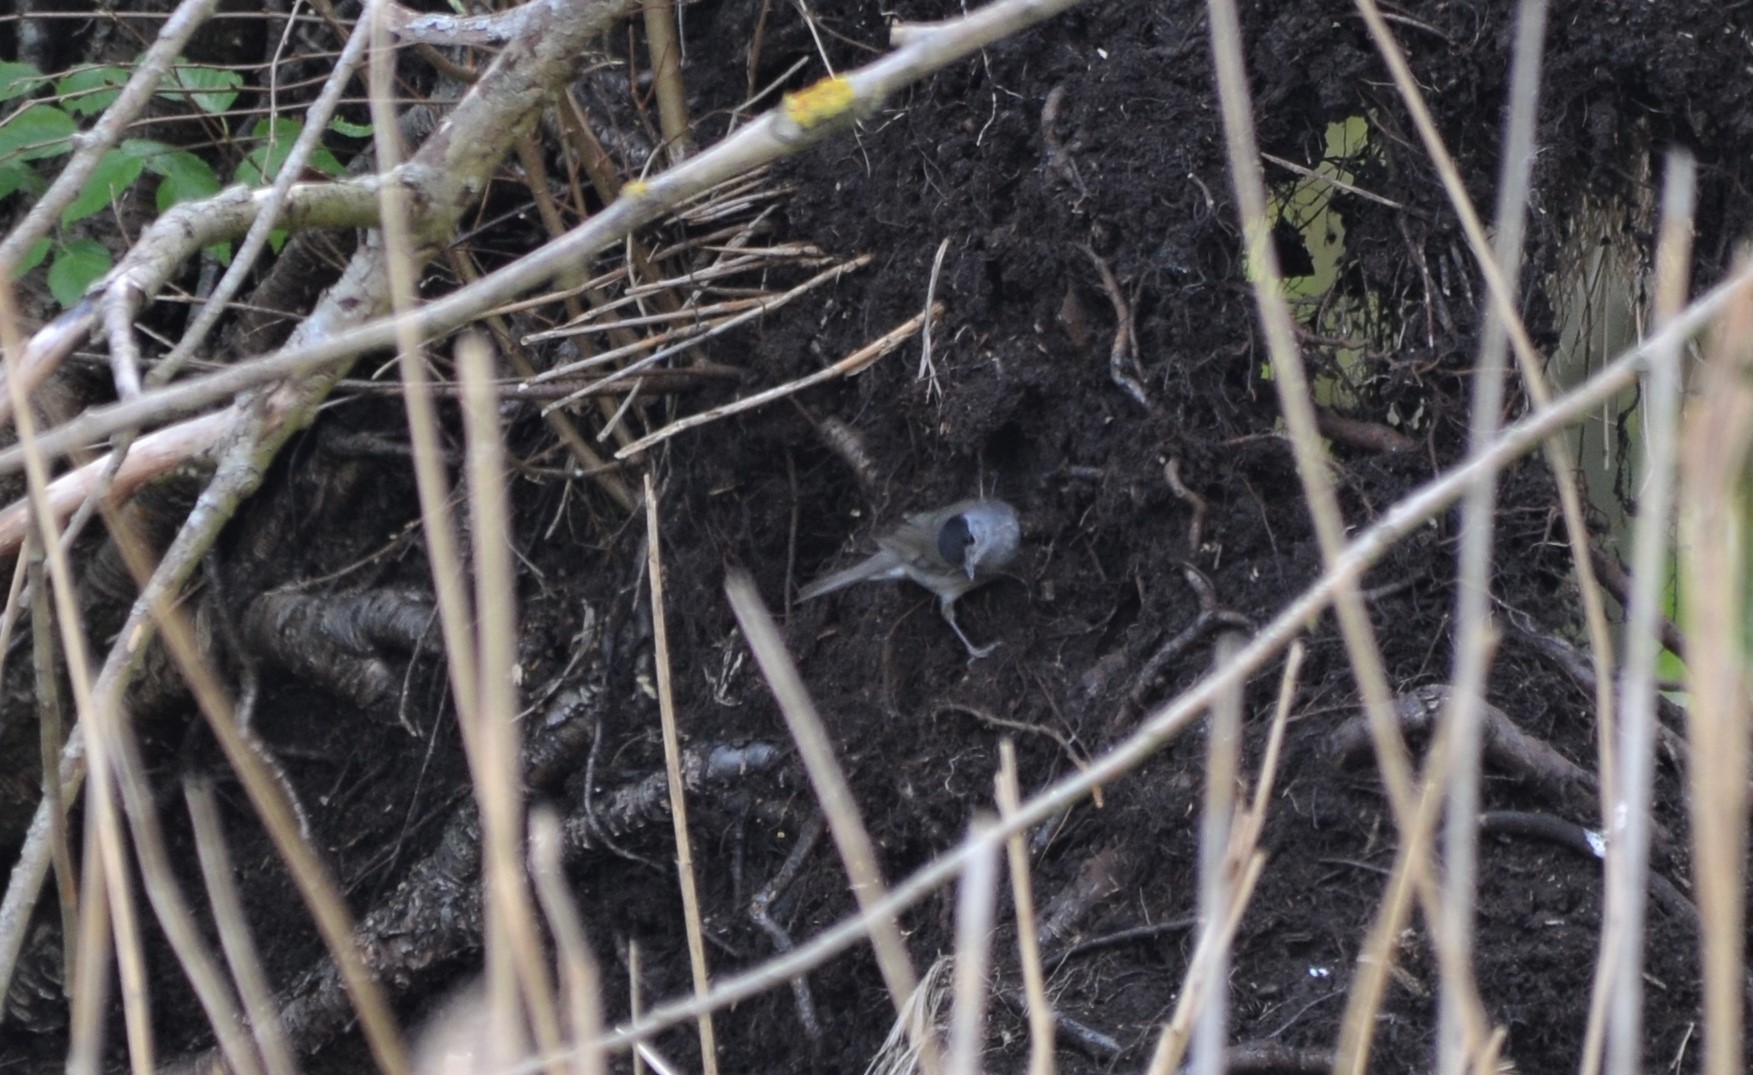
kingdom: Animalia
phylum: Chordata
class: Aves
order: Passeriformes
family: Sylviidae
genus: Sylvia
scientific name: Sylvia atricapilla
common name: Eurasian blackcap
